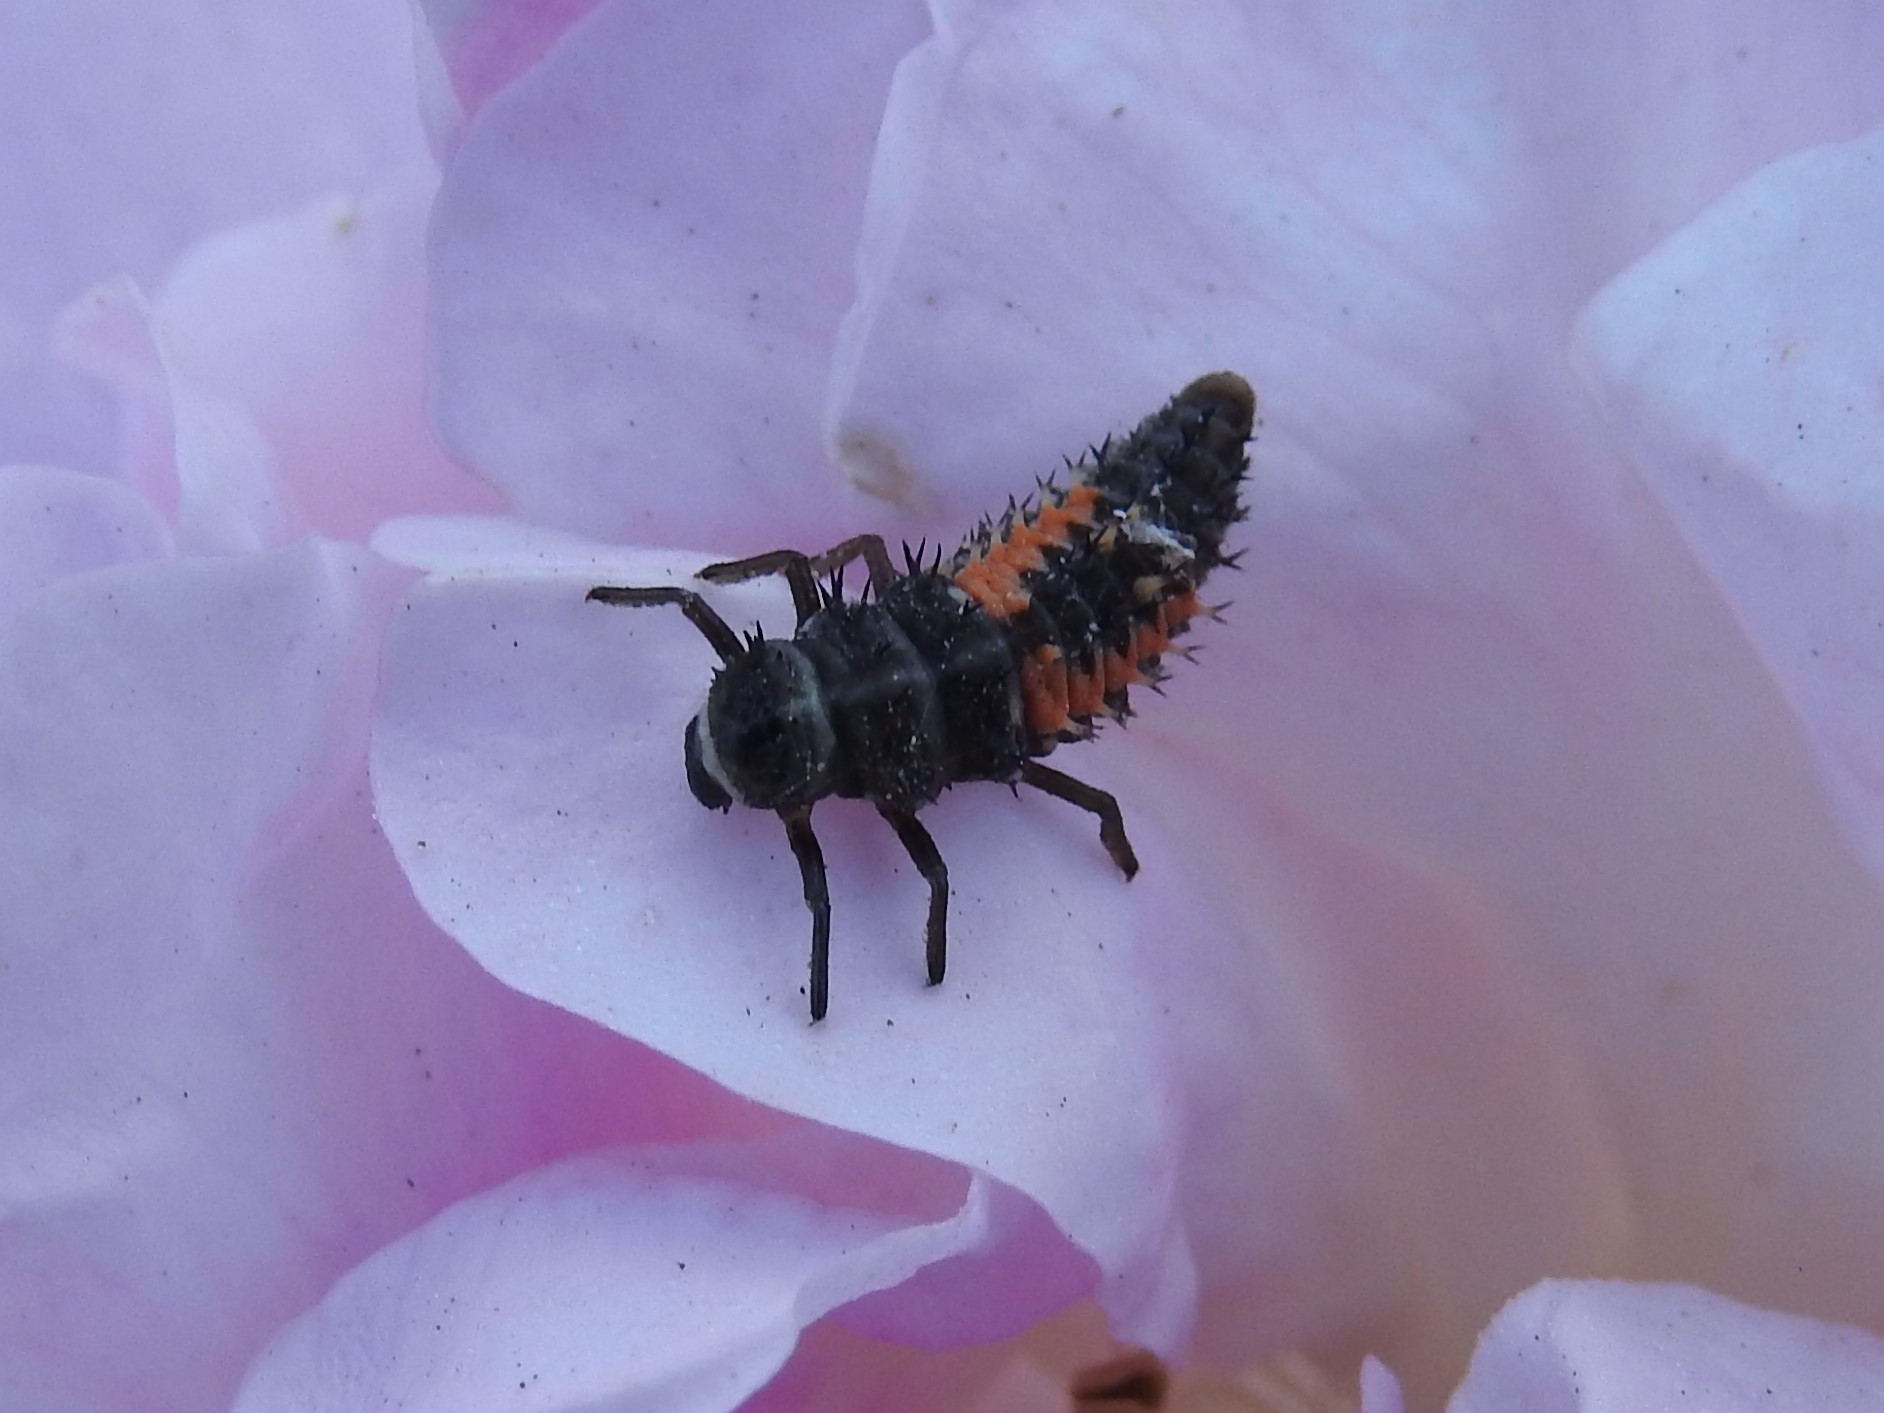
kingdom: Animalia
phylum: Arthropoda
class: Insecta
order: Coleoptera
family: Coccinellidae
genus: Harmonia
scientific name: Harmonia axyridis
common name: Harlequin ladybird
